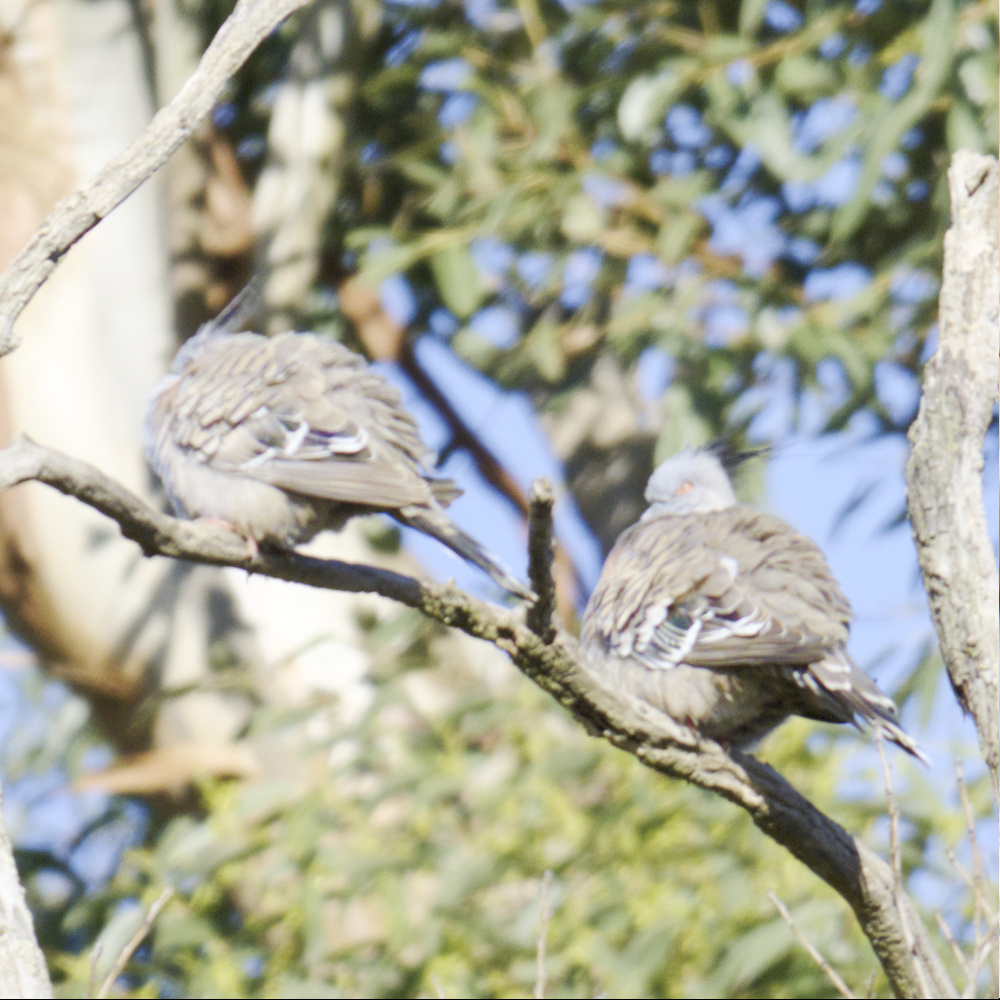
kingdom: Animalia
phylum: Chordata
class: Aves
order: Columbiformes
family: Columbidae
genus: Ocyphaps
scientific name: Ocyphaps lophotes
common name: Crested pigeon
